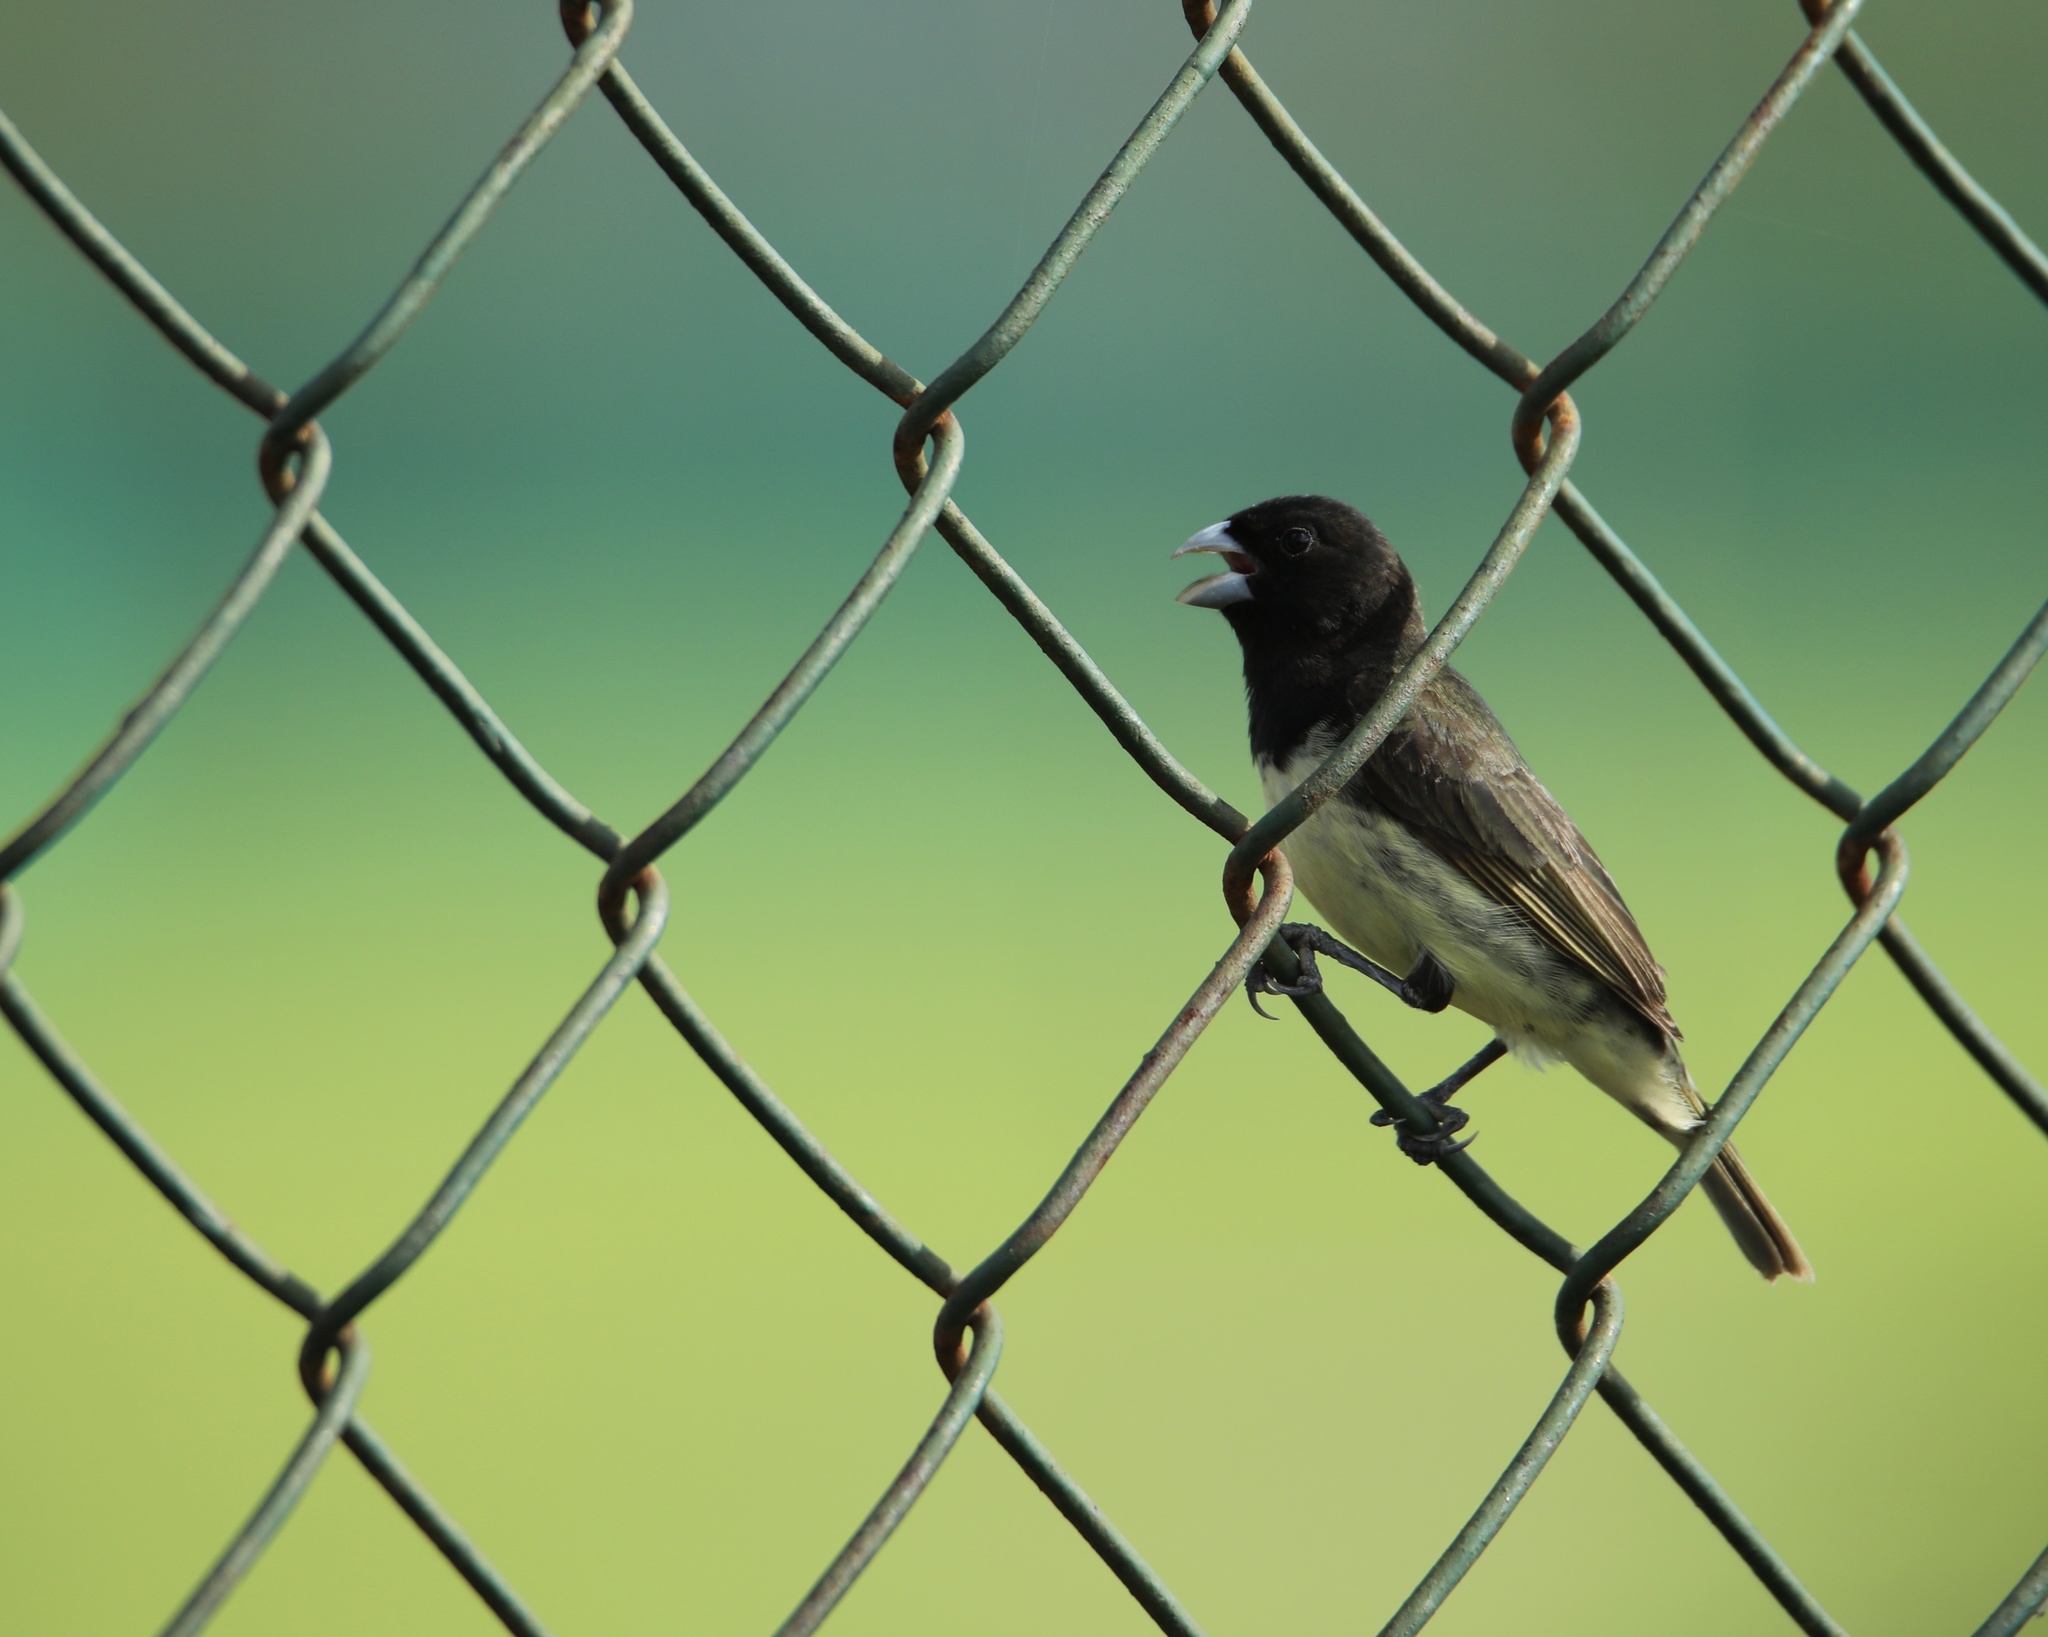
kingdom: Animalia
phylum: Chordata
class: Aves
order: Passeriformes
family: Thraupidae
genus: Sporophila
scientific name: Sporophila nigricollis
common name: Yellow-bellied seedeater
